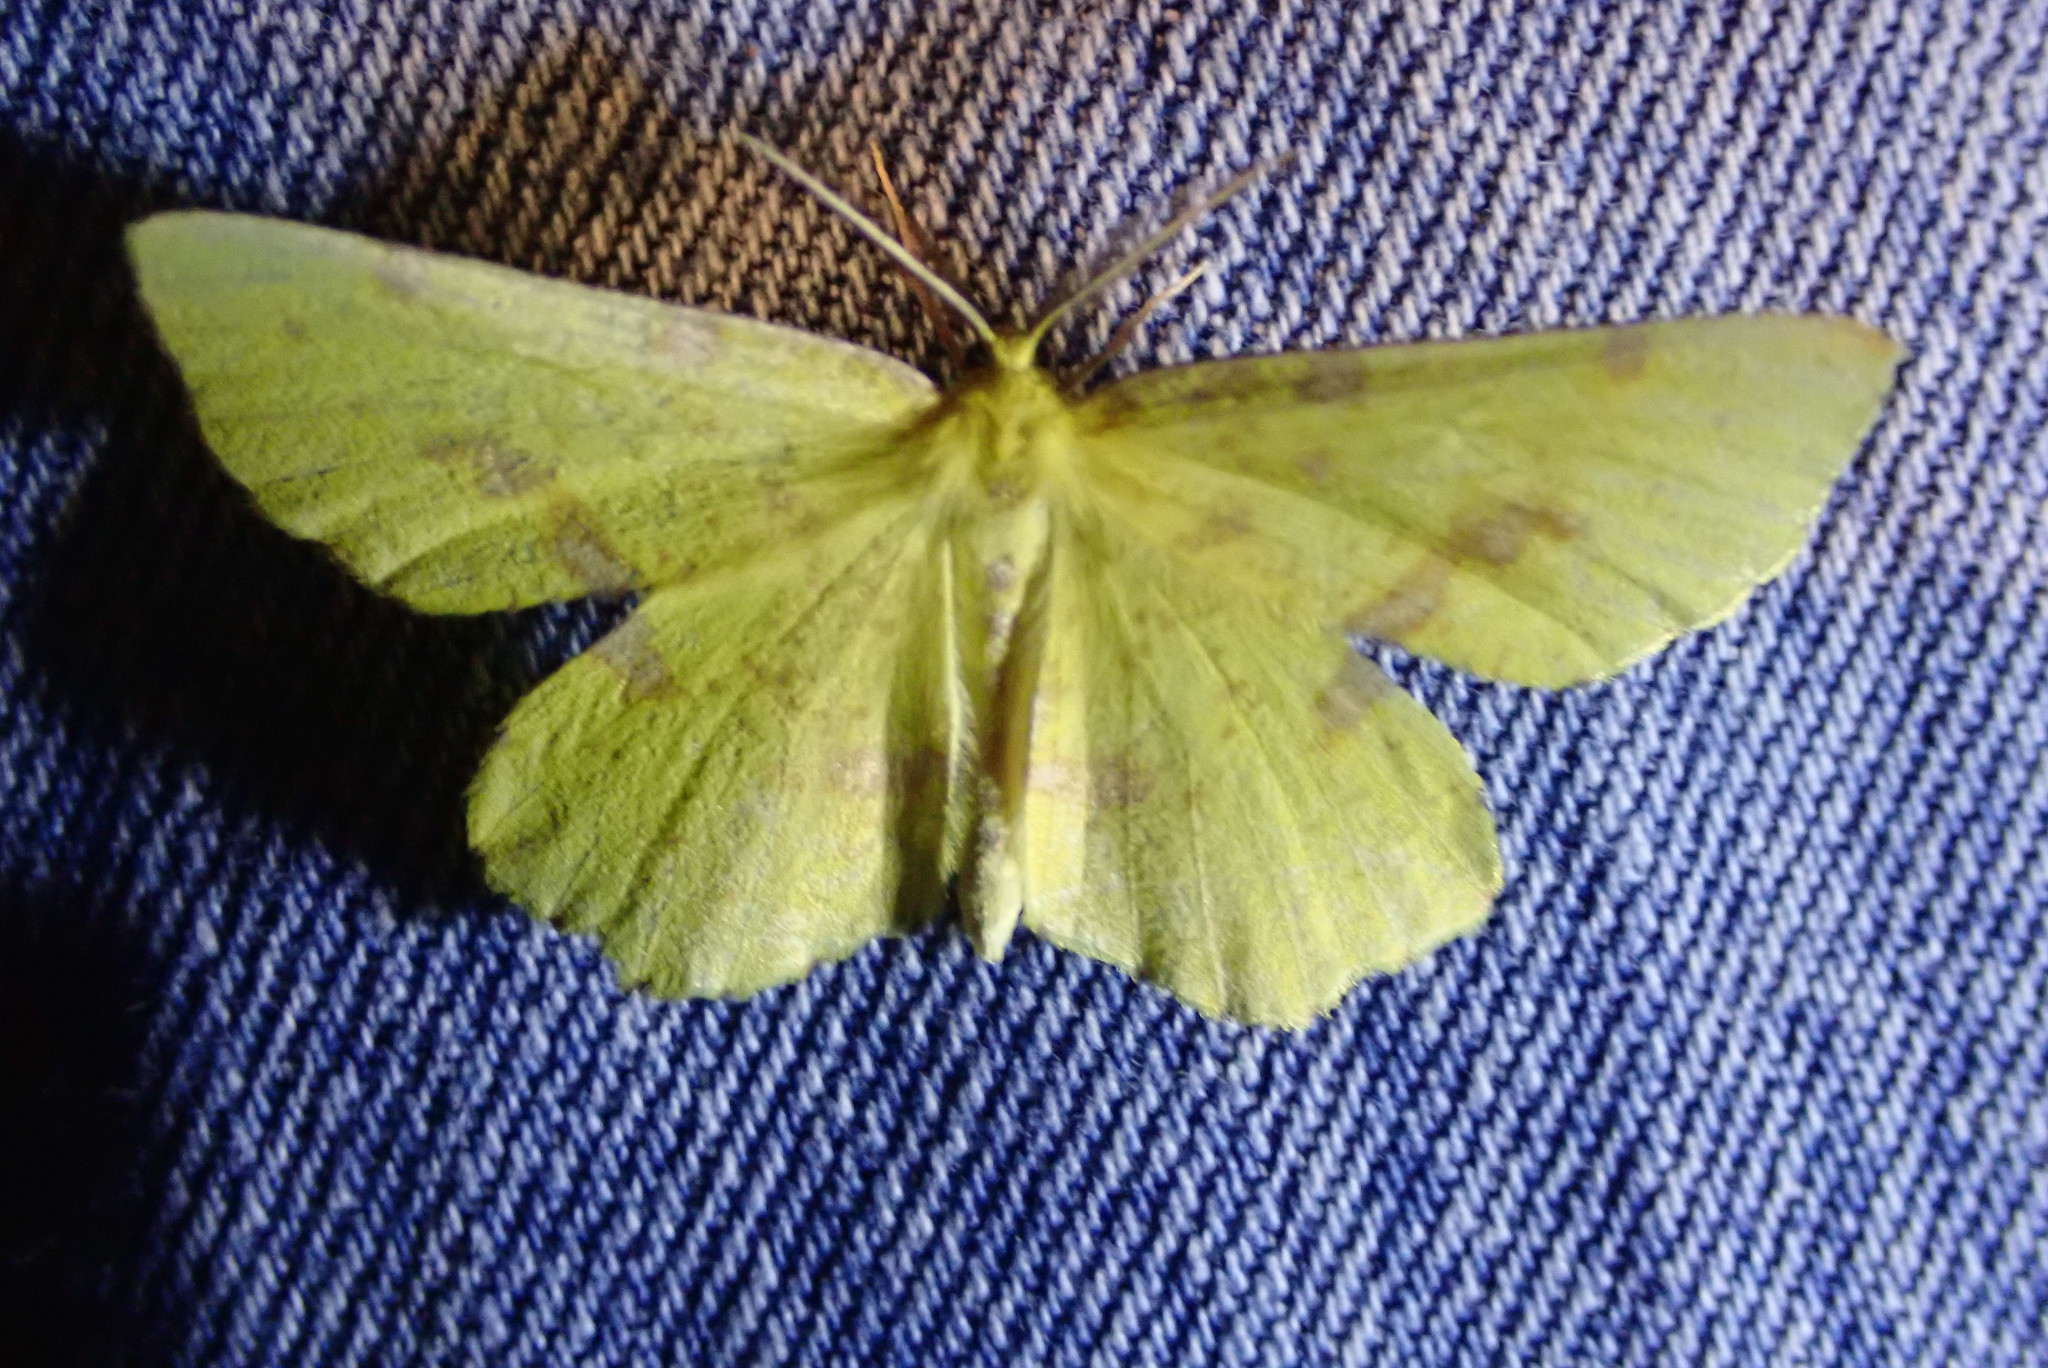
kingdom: Animalia
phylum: Arthropoda
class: Insecta
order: Lepidoptera
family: Geometridae
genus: Xanthotype
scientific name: Xanthotype
